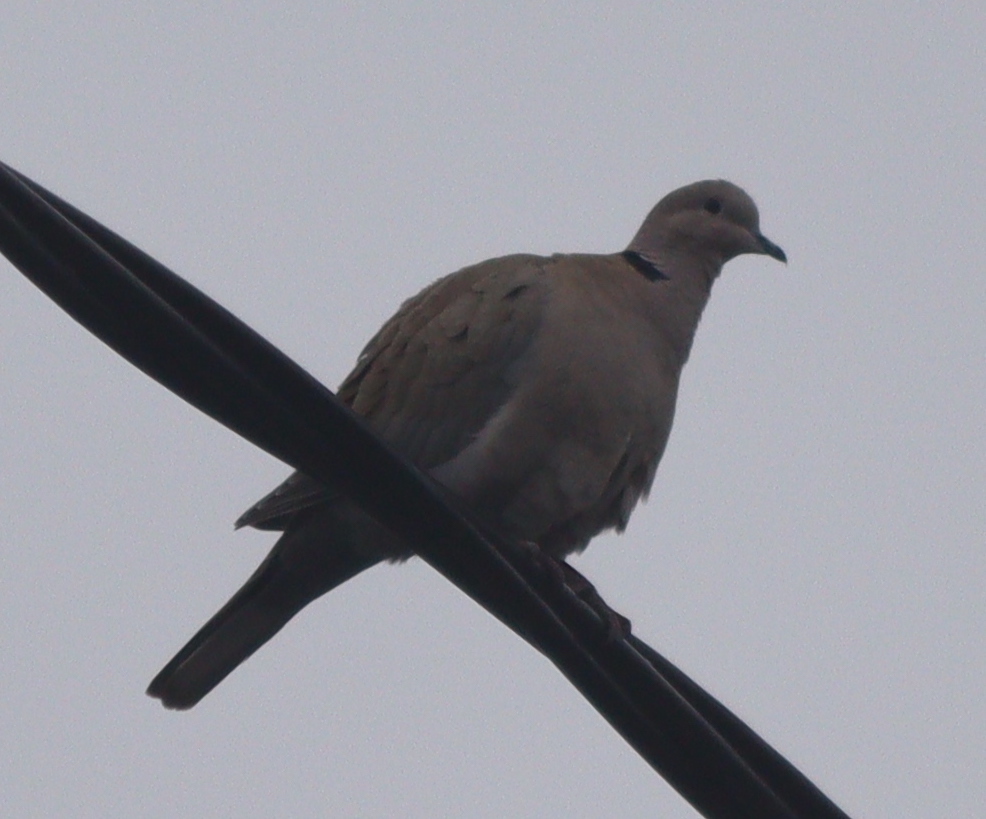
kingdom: Animalia
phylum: Chordata
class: Aves
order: Columbiformes
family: Columbidae
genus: Streptopelia
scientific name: Streptopelia decaocto
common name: Eurasian collared dove
